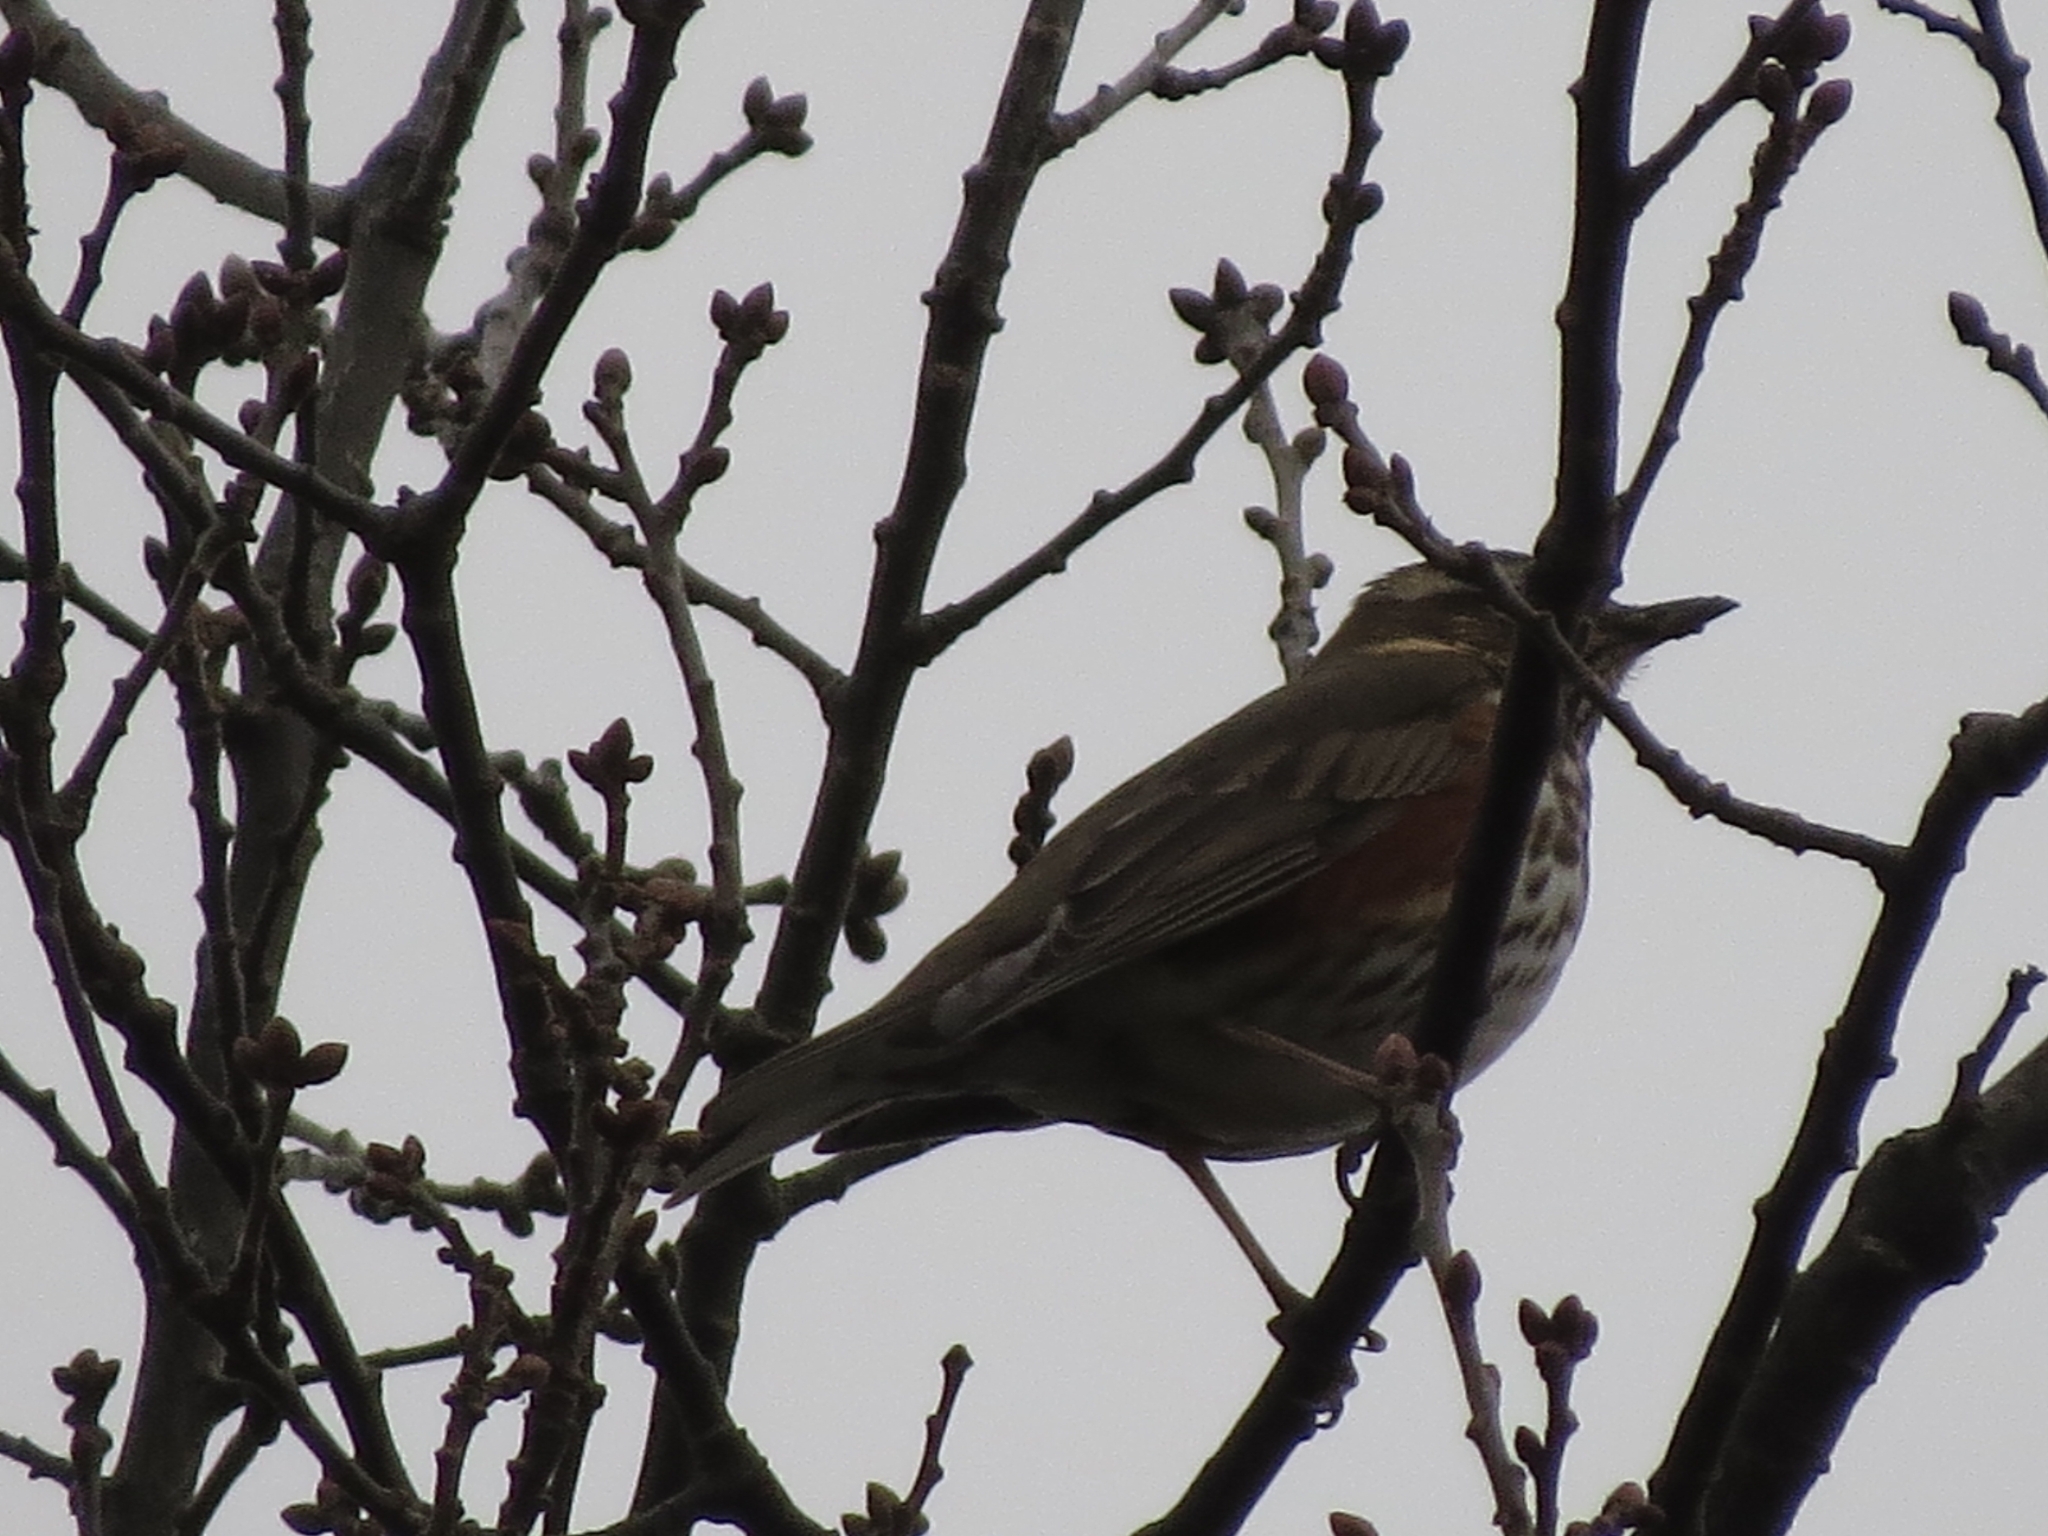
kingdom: Animalia
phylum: Chordata
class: Aves
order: Passeriformes
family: Turdidae
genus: Turdus
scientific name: Turdus iliacus
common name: Redwing
